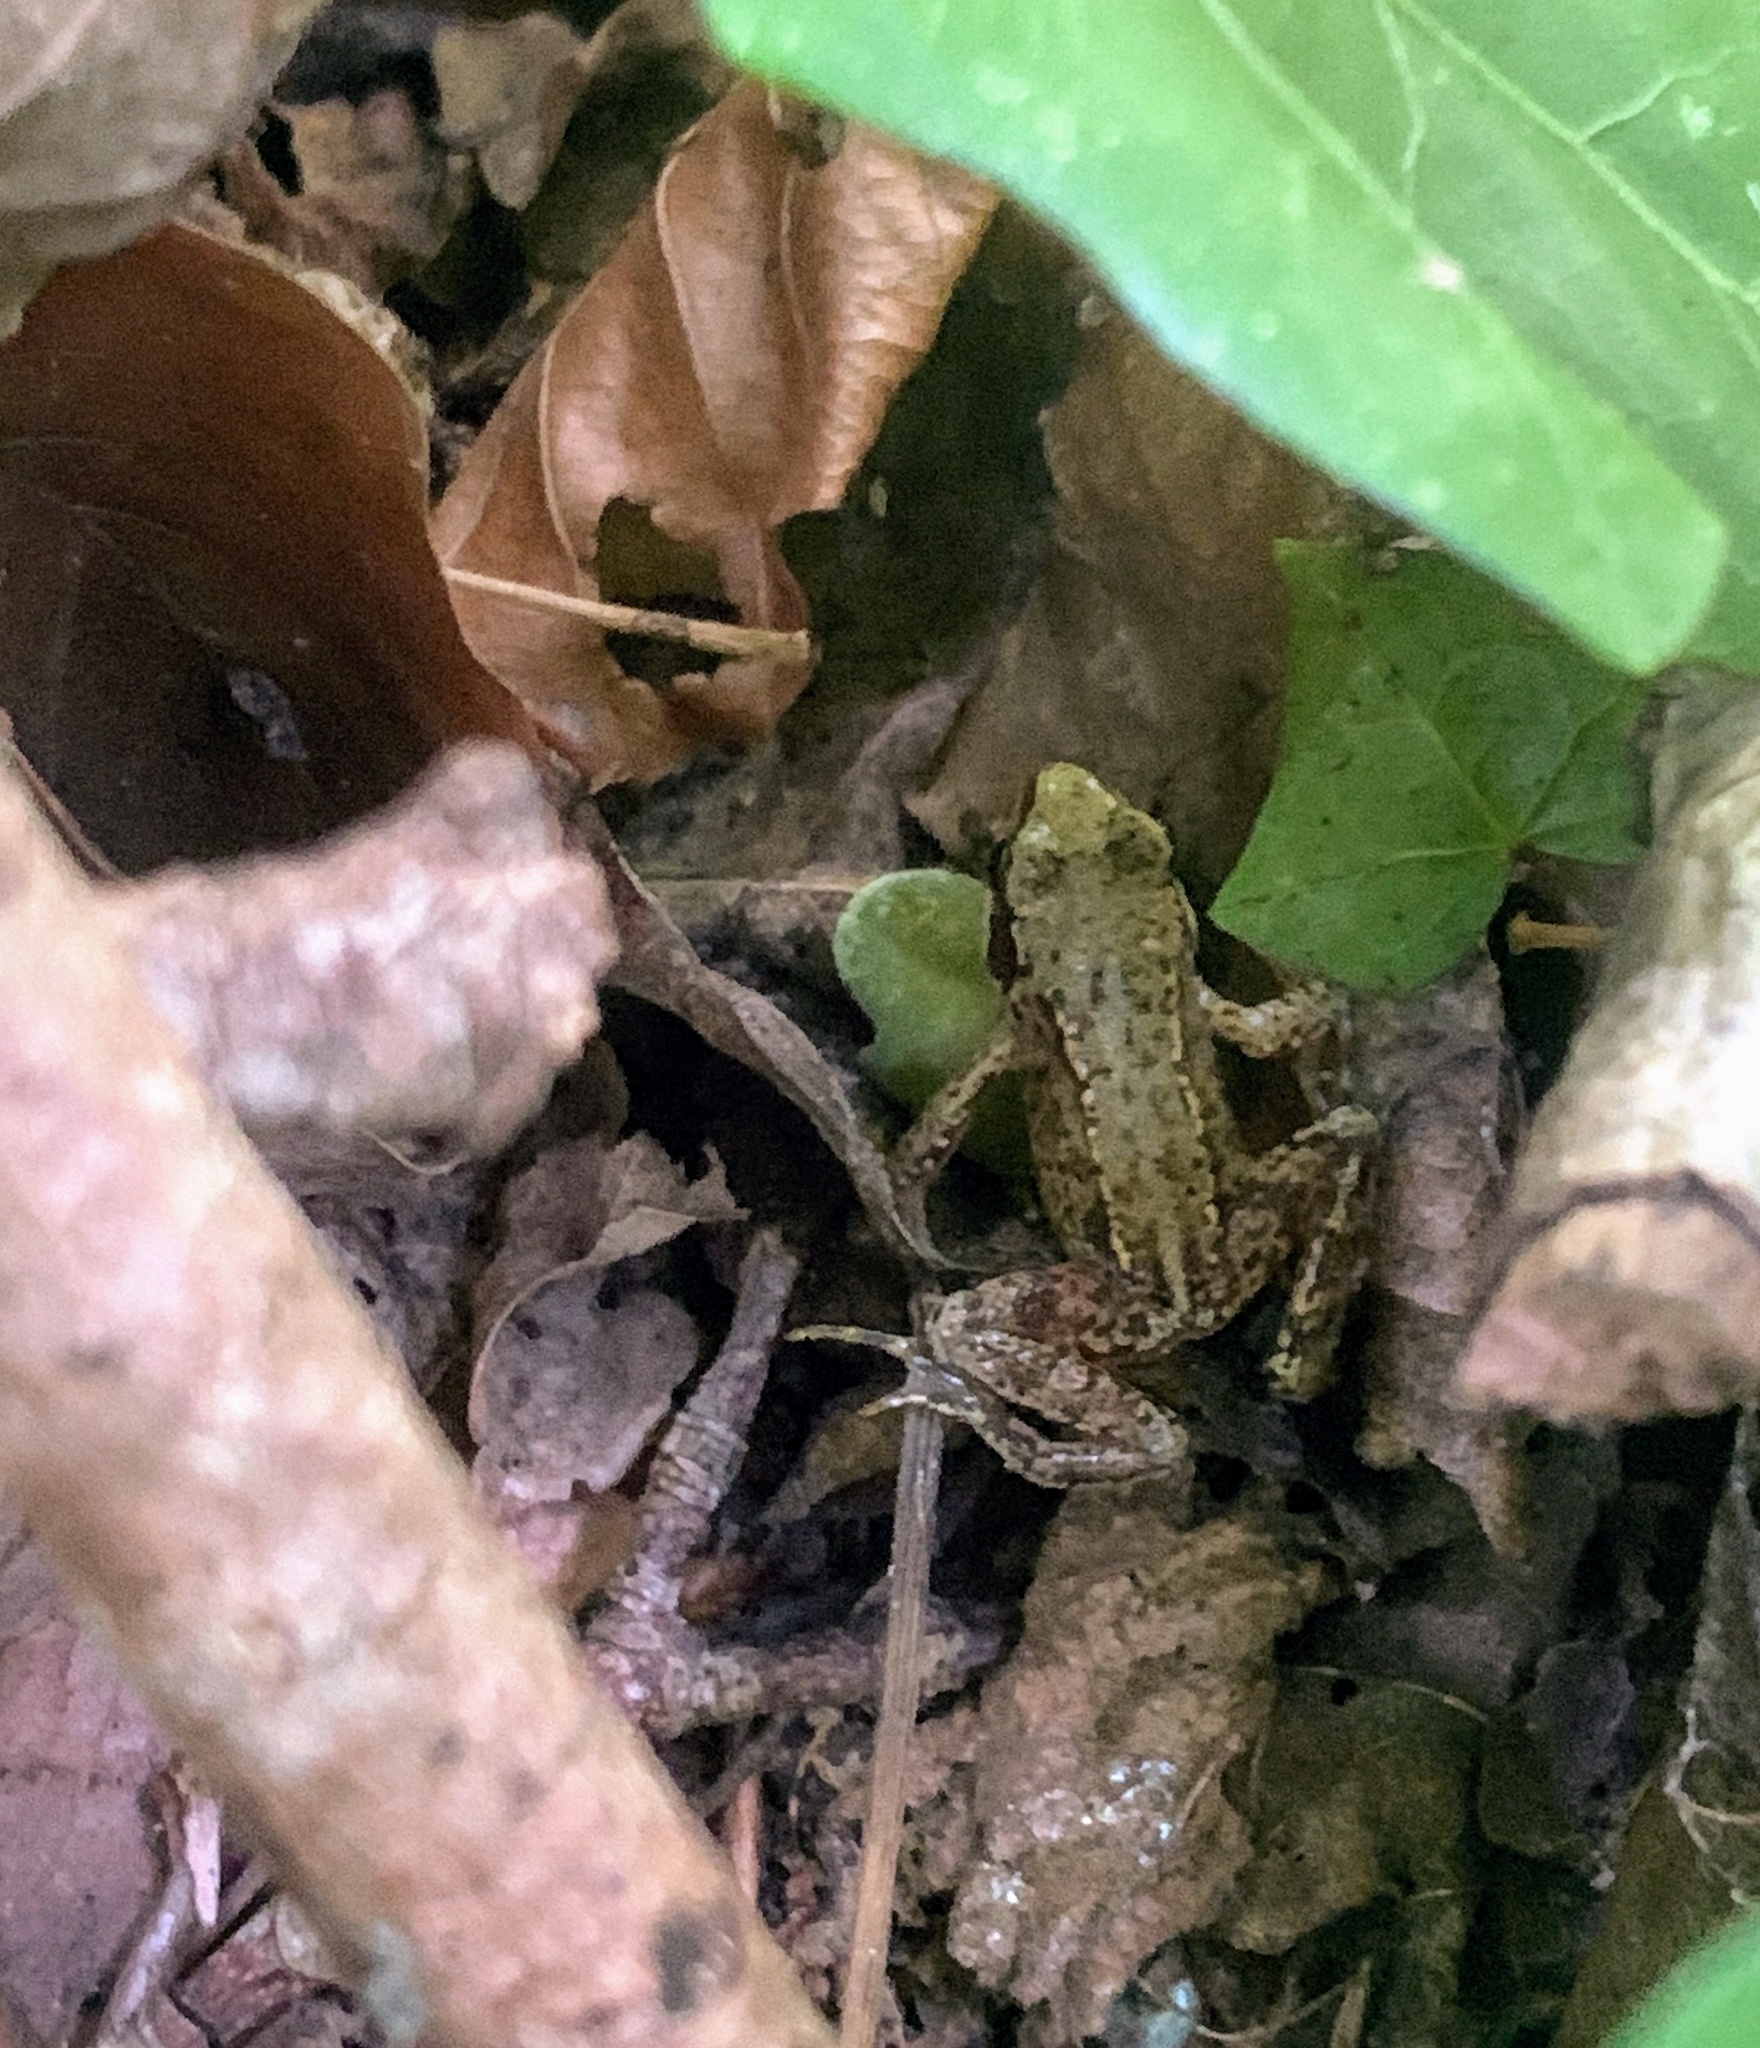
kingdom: Animalia
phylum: Chordata
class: Amphibia
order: Anura
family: Ranidae
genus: Rana
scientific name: Rana temporaria
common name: Common frog
